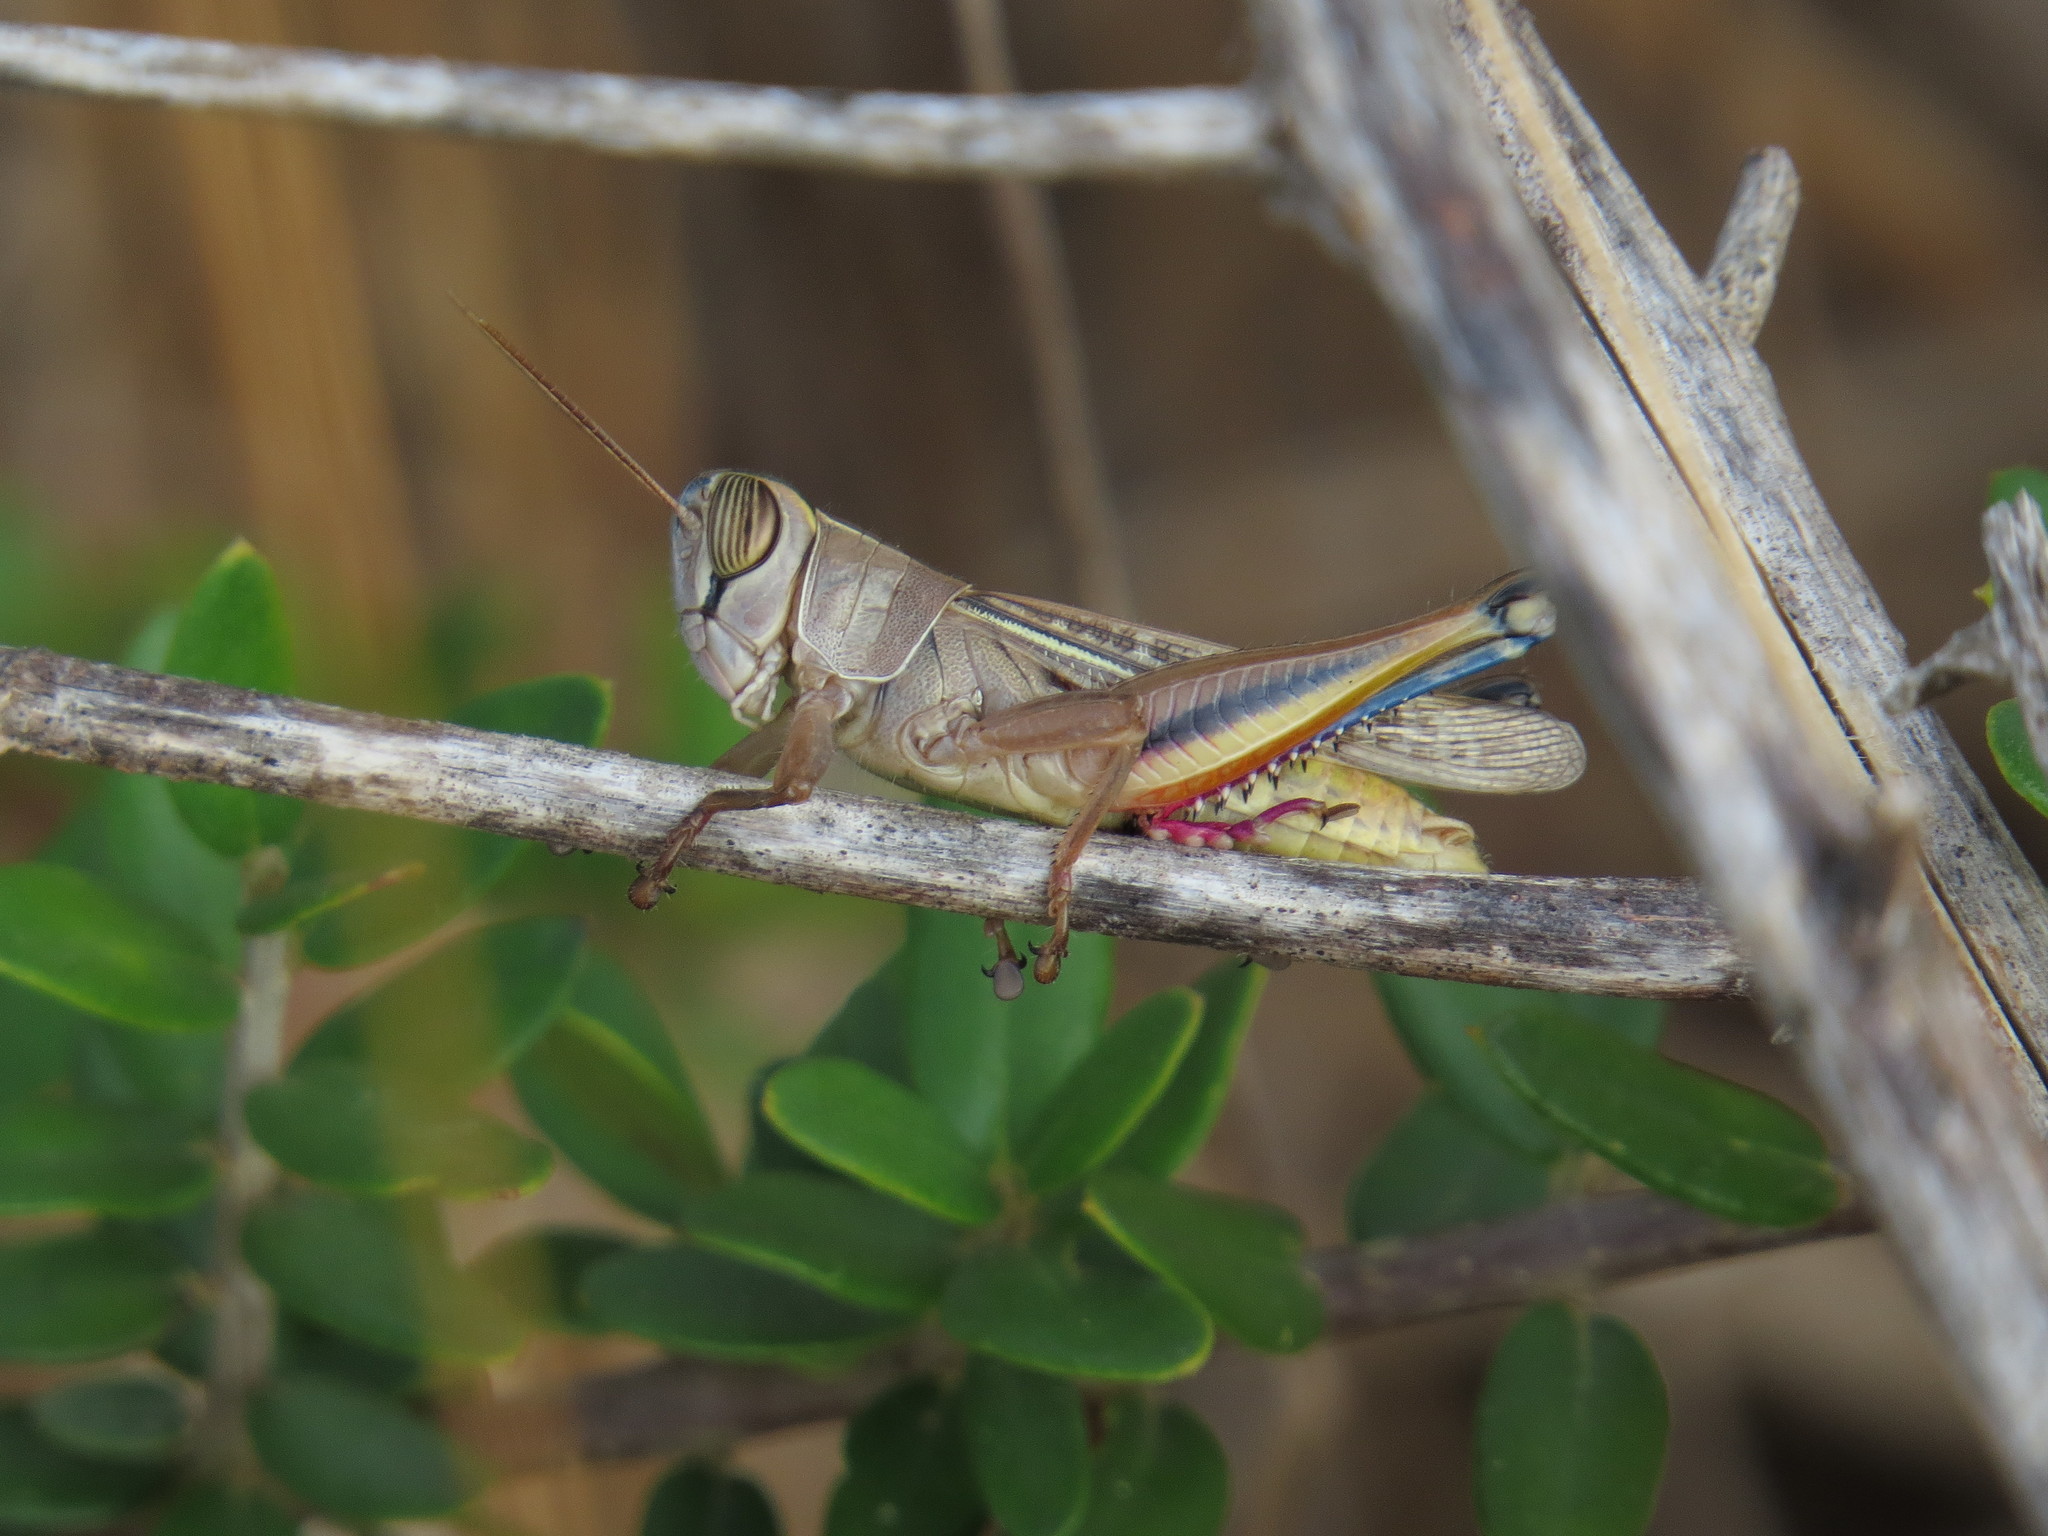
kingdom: Animalia
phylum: Arthropoda
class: Insecta
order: Orthoptera
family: Acrididae
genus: Eyprepocnemis
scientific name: Eyprepocnemis plorans
